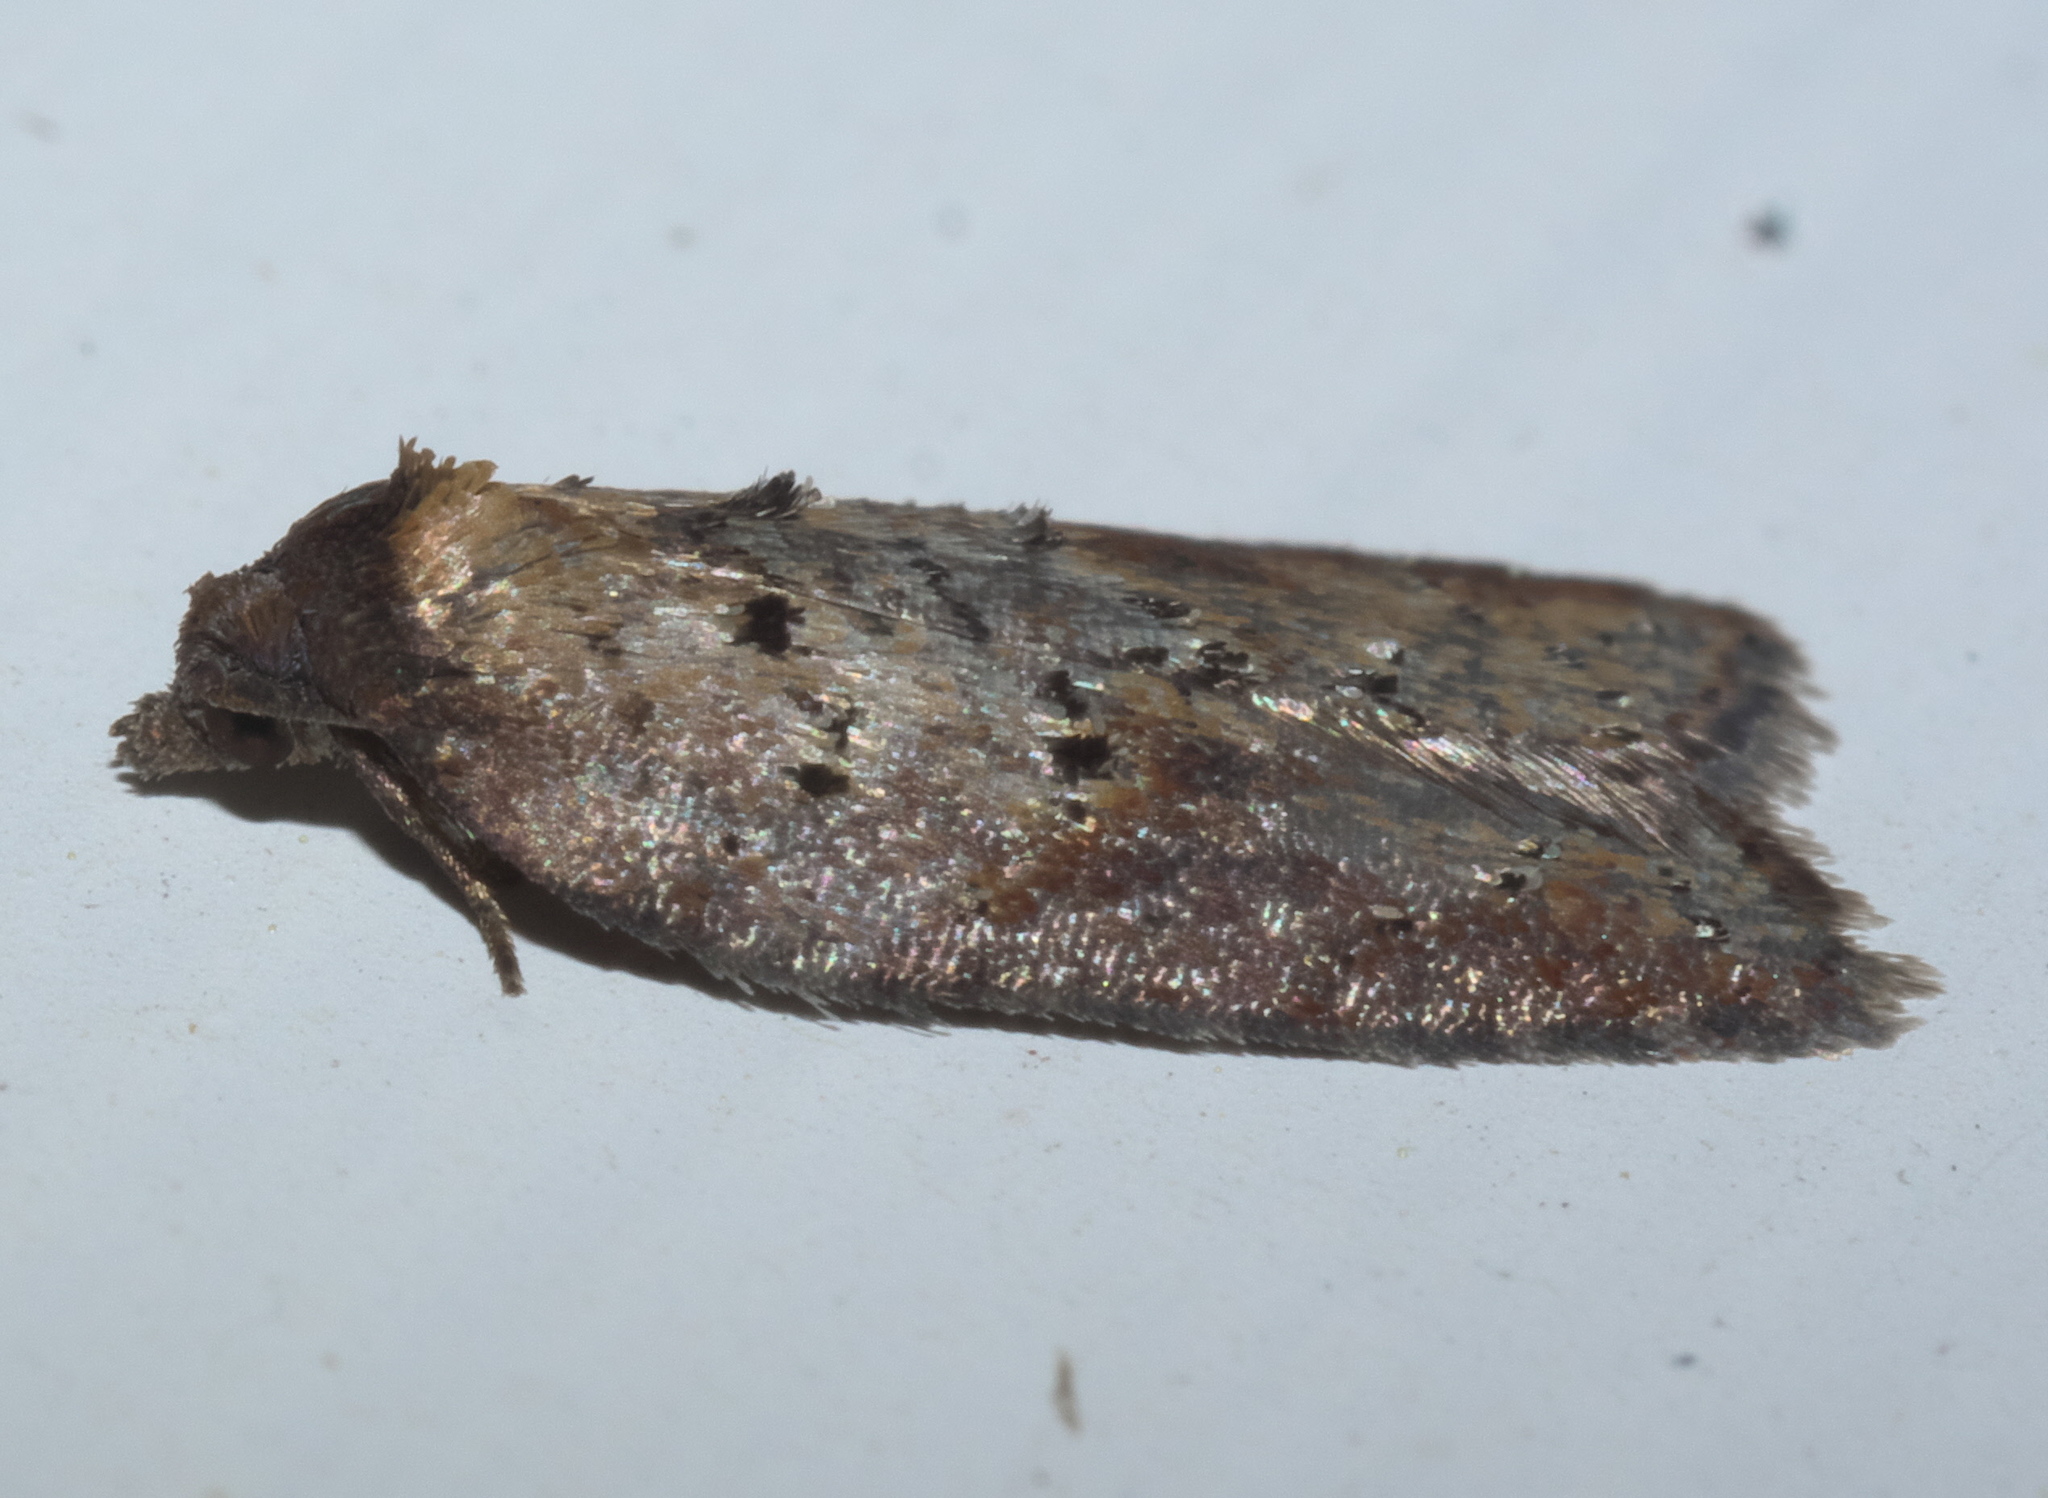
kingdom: Animalia
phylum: Arthropoda
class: Insecta
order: Lepidoptera
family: Tortricidae
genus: Acleris
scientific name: Acleris schalleriana
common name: Viburnum button
